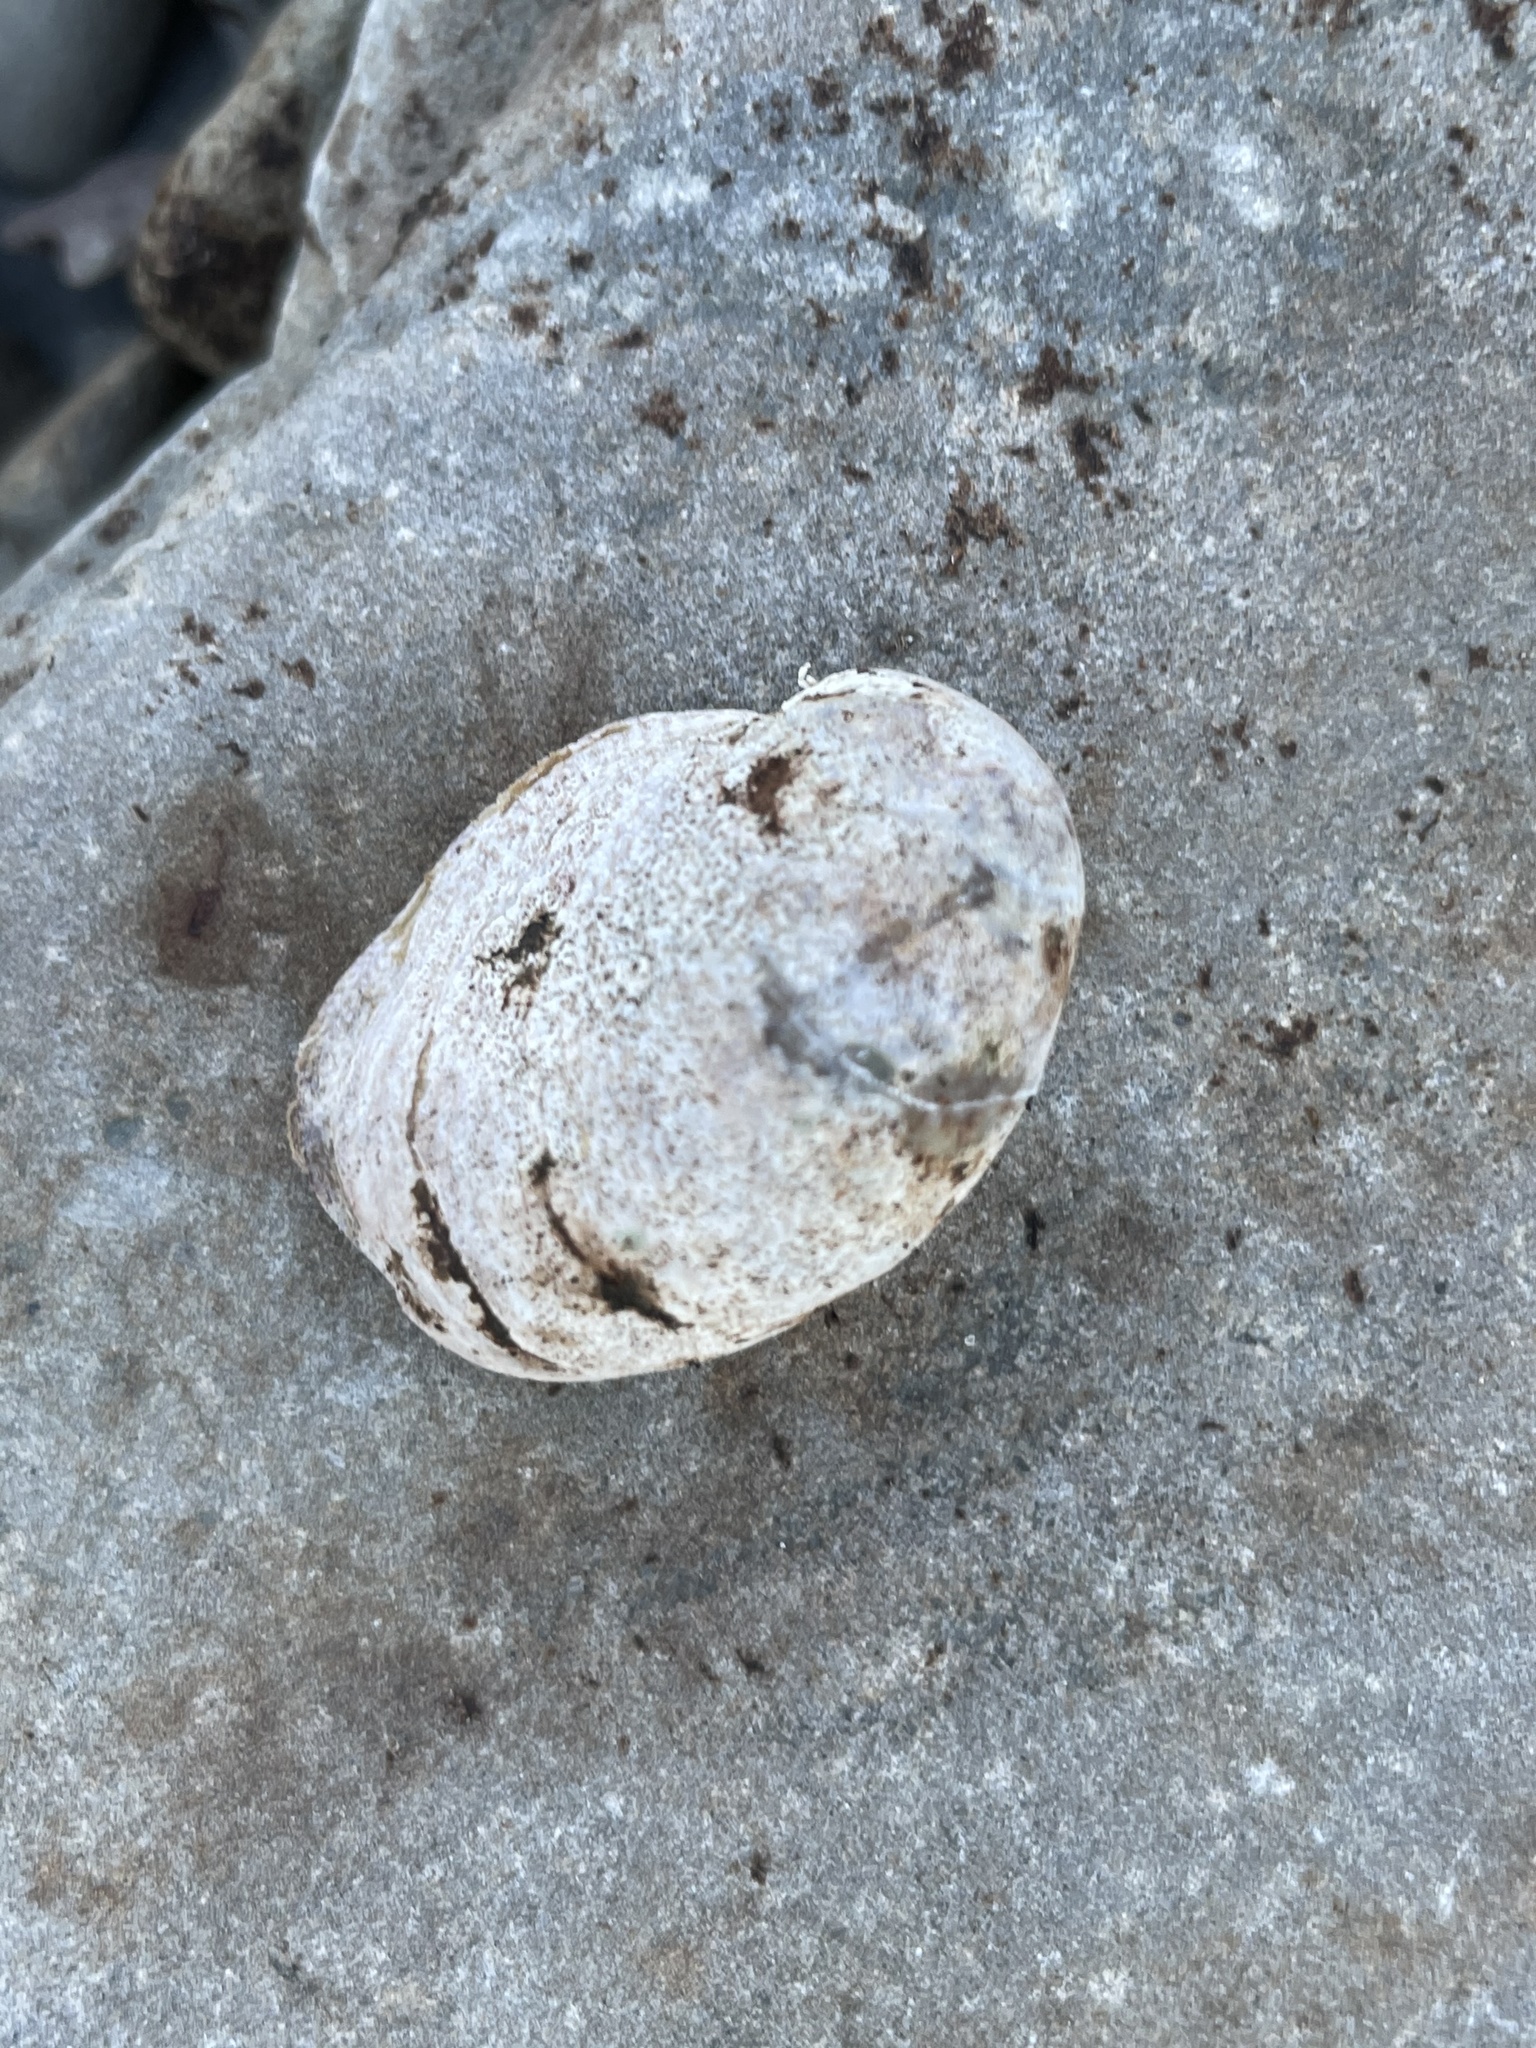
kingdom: Animalia
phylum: Mollusca
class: Gastropoda
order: Littorinimorpha
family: Calyptraeidae
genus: Crepidula
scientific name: Crepidula fornicata
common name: Slipper limpet
